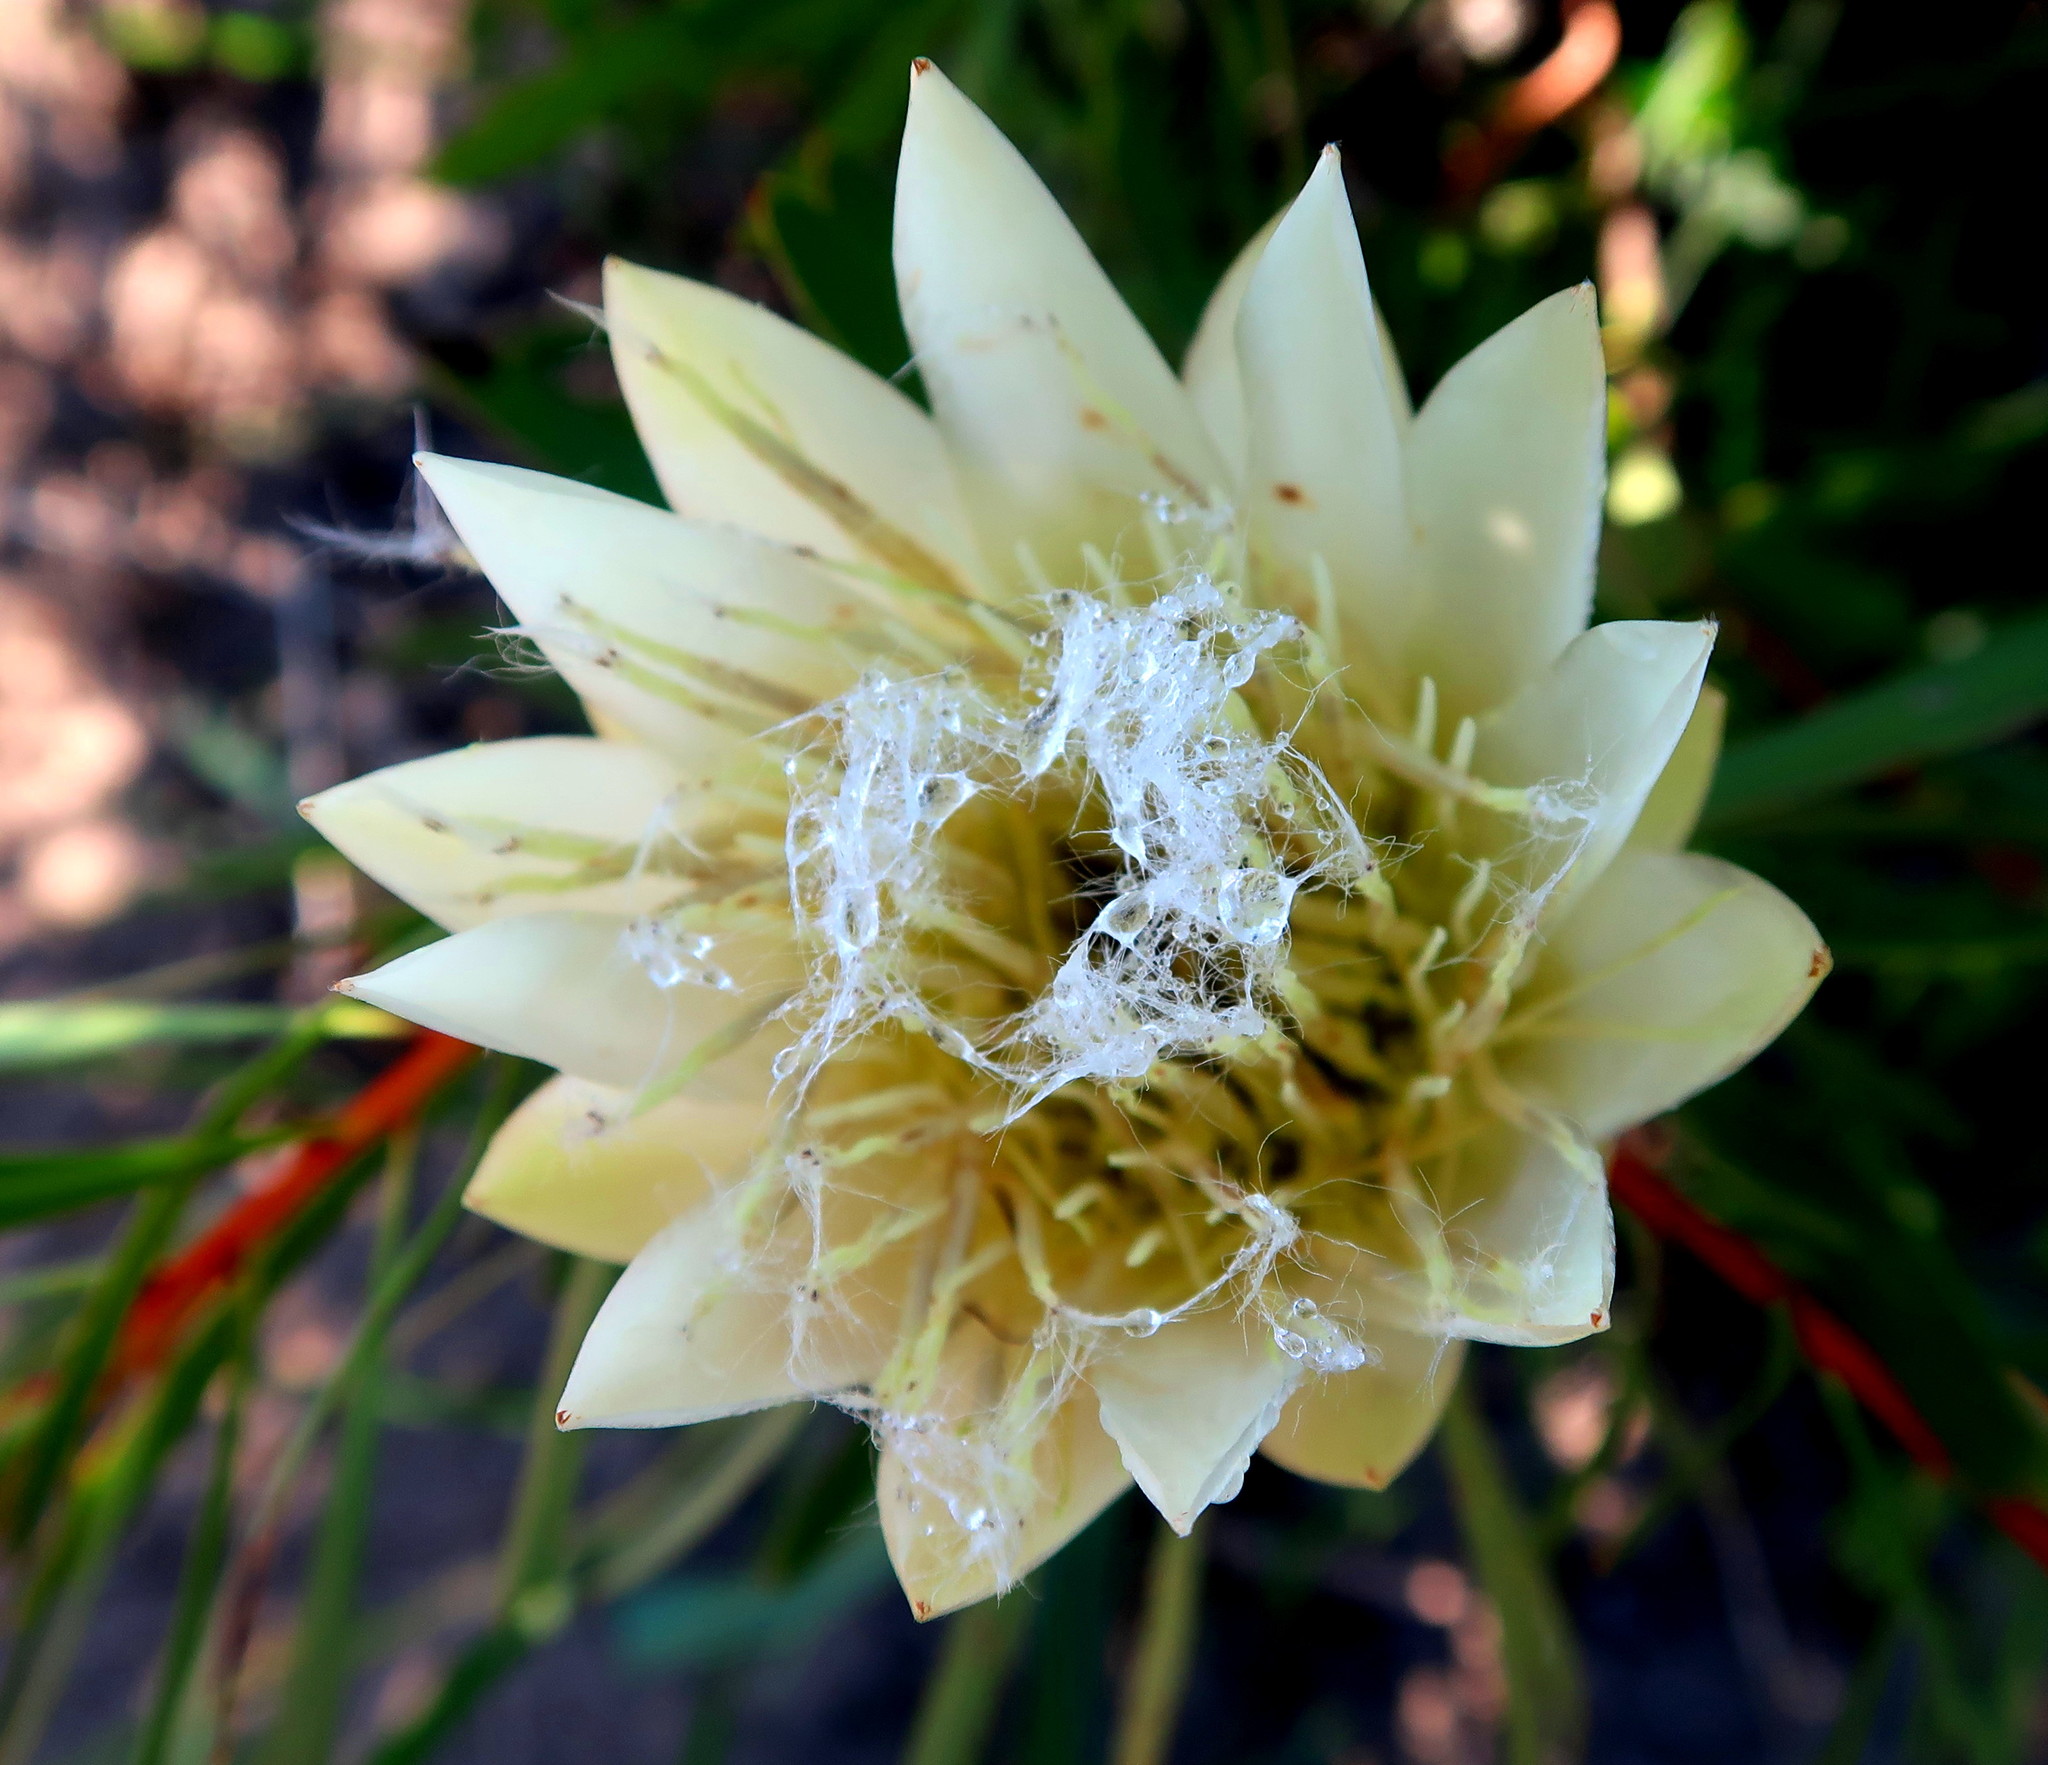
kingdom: Plantae
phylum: Tracheophyta
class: Magnoliopsida
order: Proteales
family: Proteaceae
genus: Protea
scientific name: Protea repens
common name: Sugarbush
